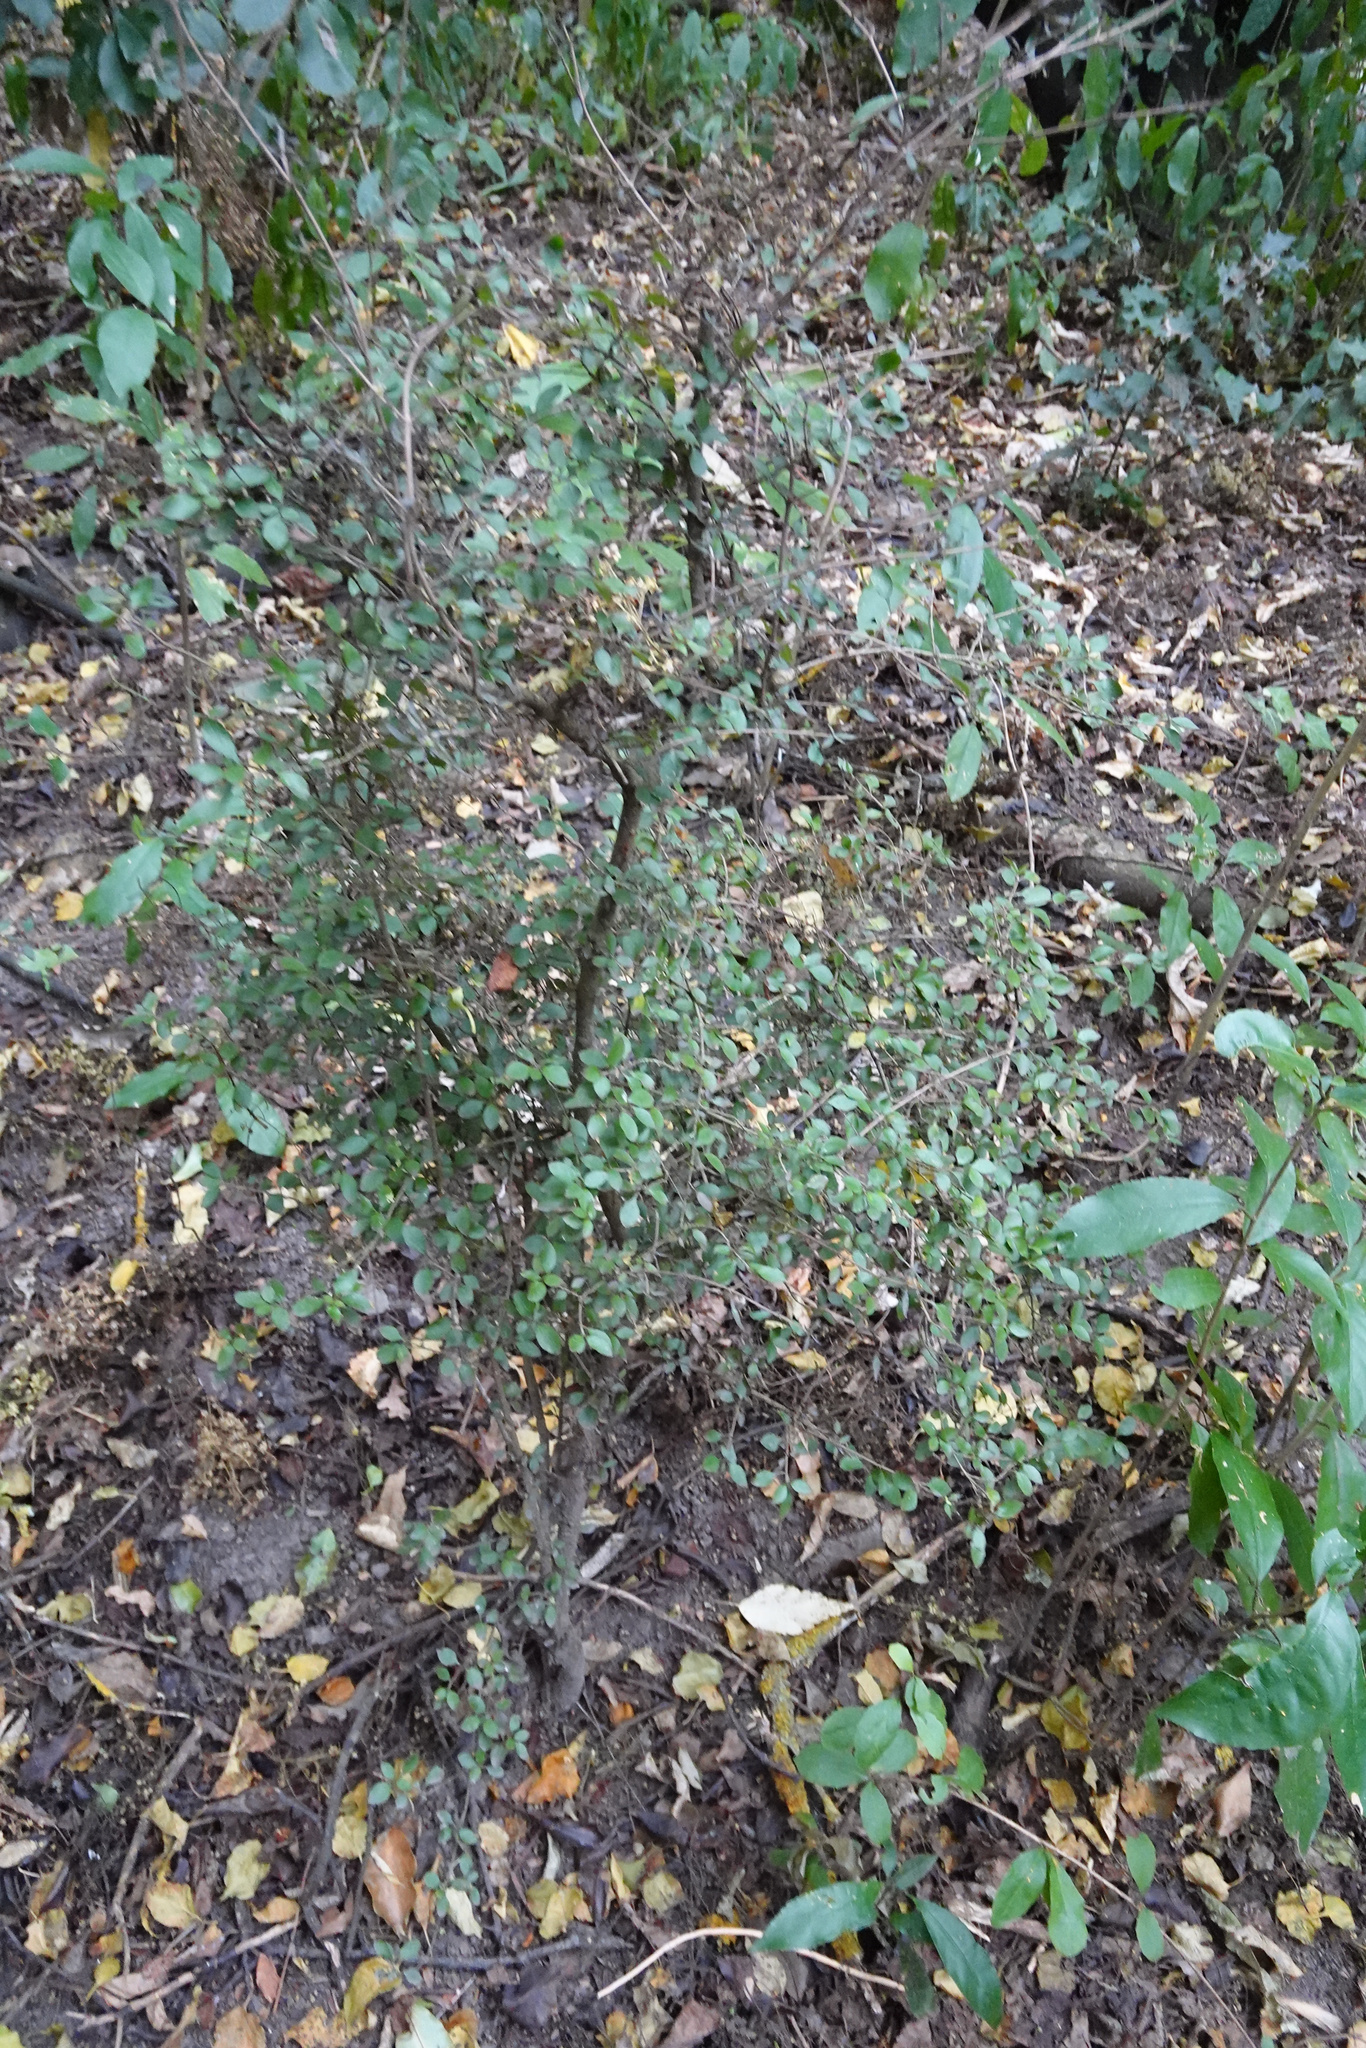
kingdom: Plantae
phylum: Tracheophyta
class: Magnoliopsida
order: Gentianales
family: Rubiaceae
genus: Coprosma
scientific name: Coprosma rhamnoides
